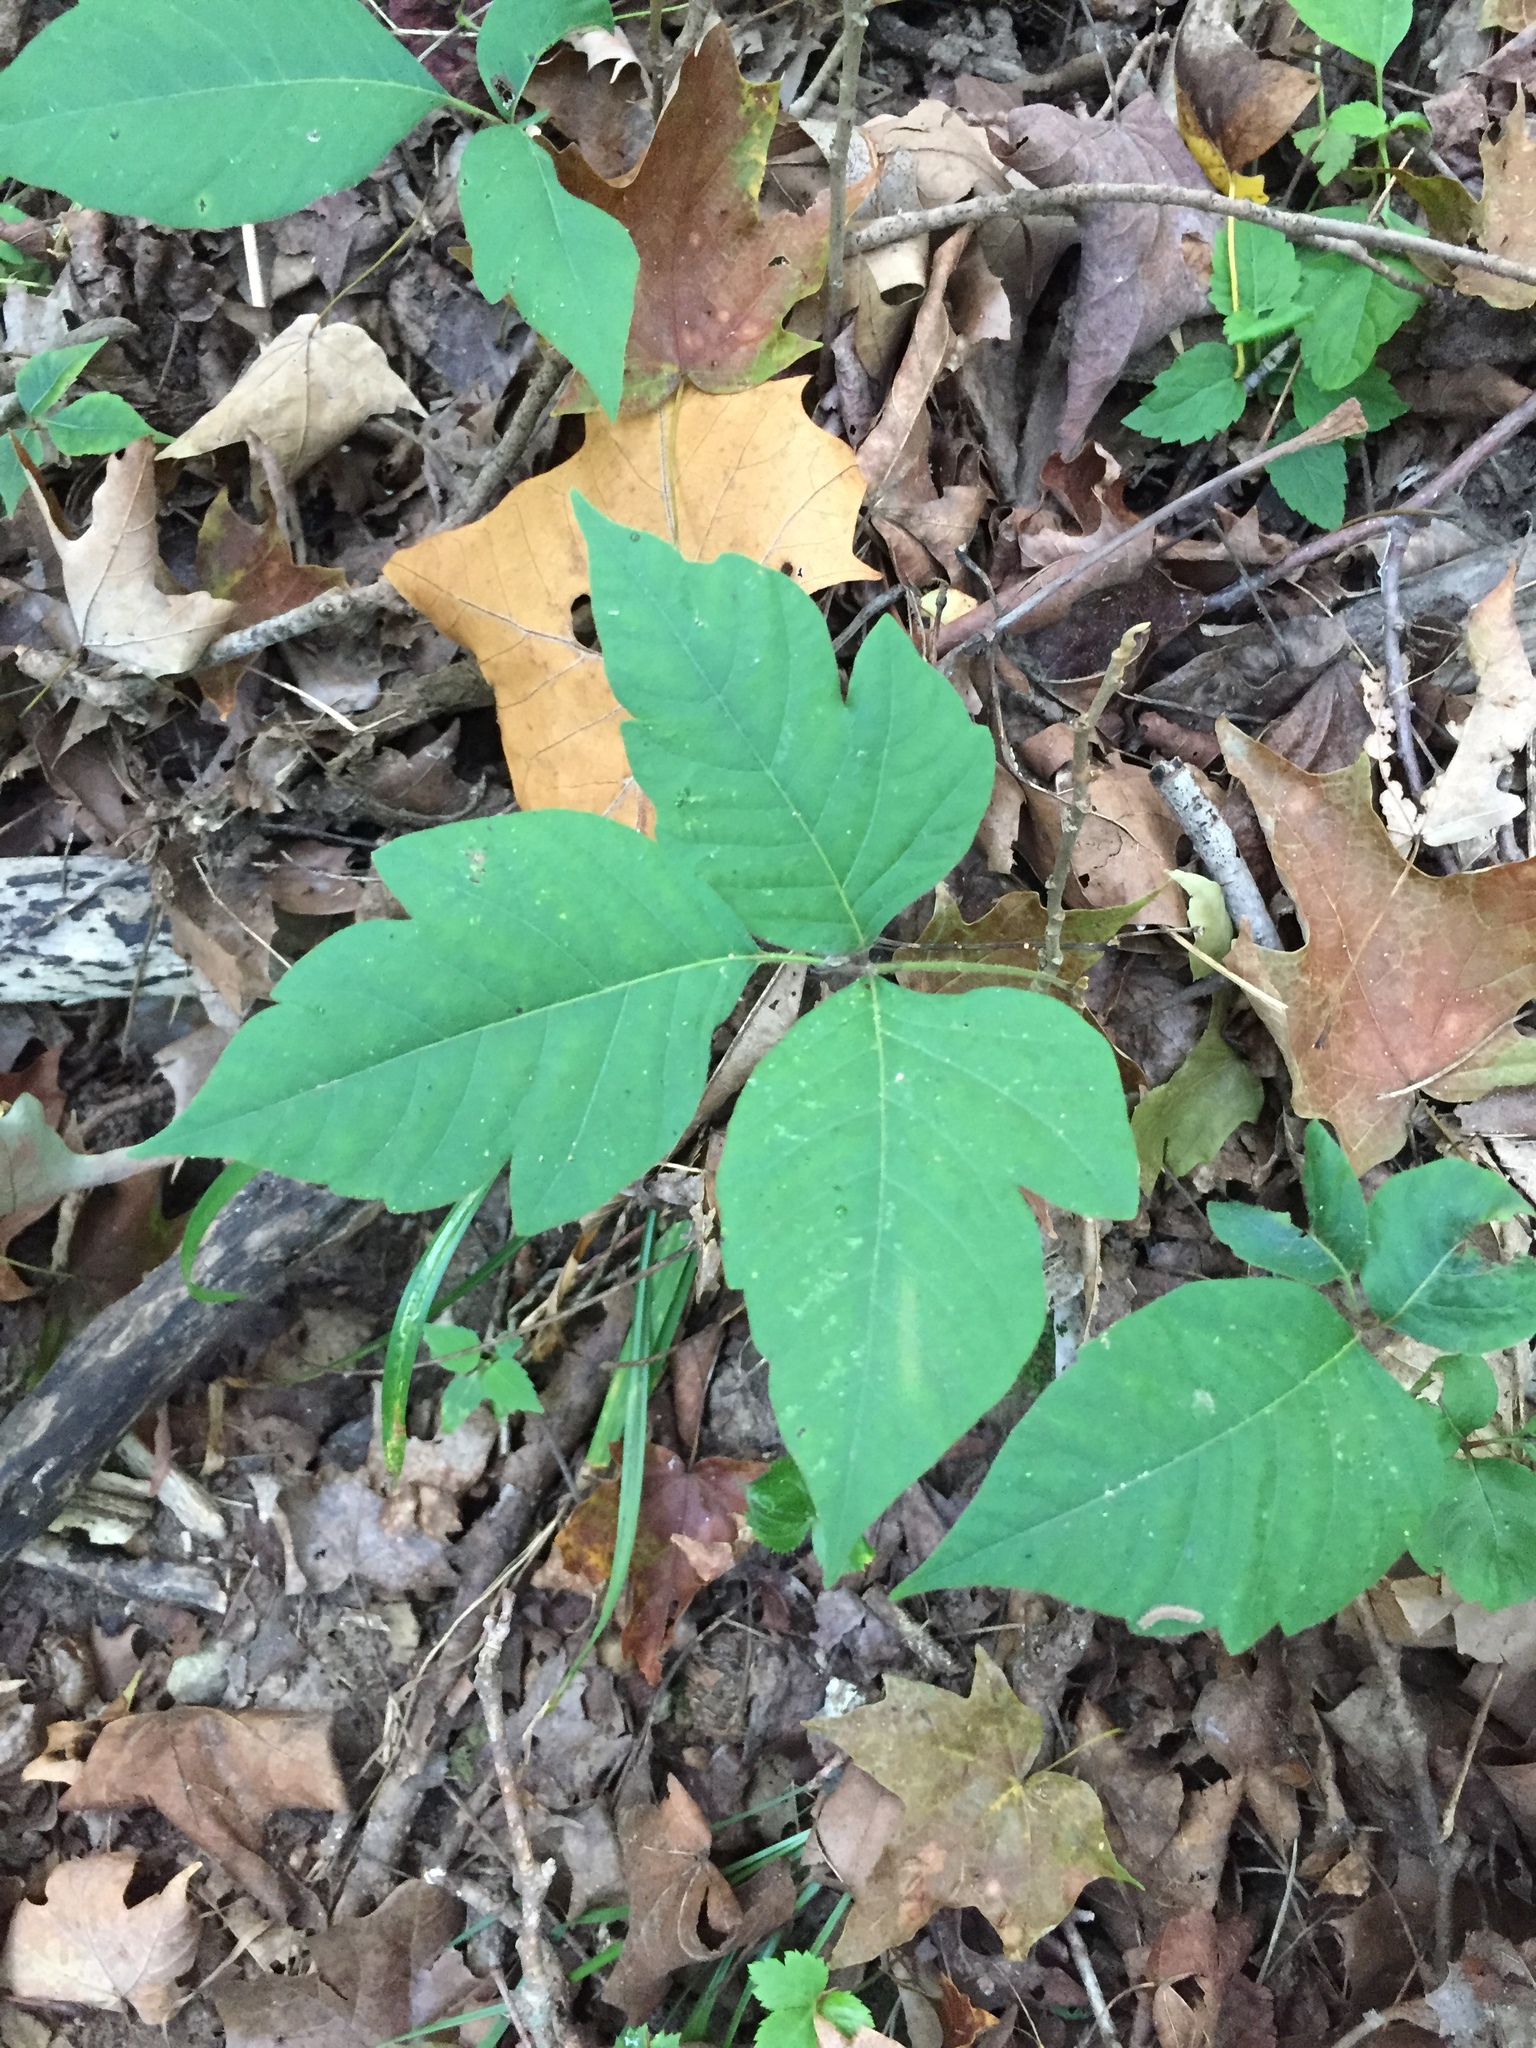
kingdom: Plantae
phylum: Tracheophyta
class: Magnoliopsida
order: Sapindales
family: Anacardiaceae
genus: Toxicodendron
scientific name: Toxicodendron radicans
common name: Poison ivy
